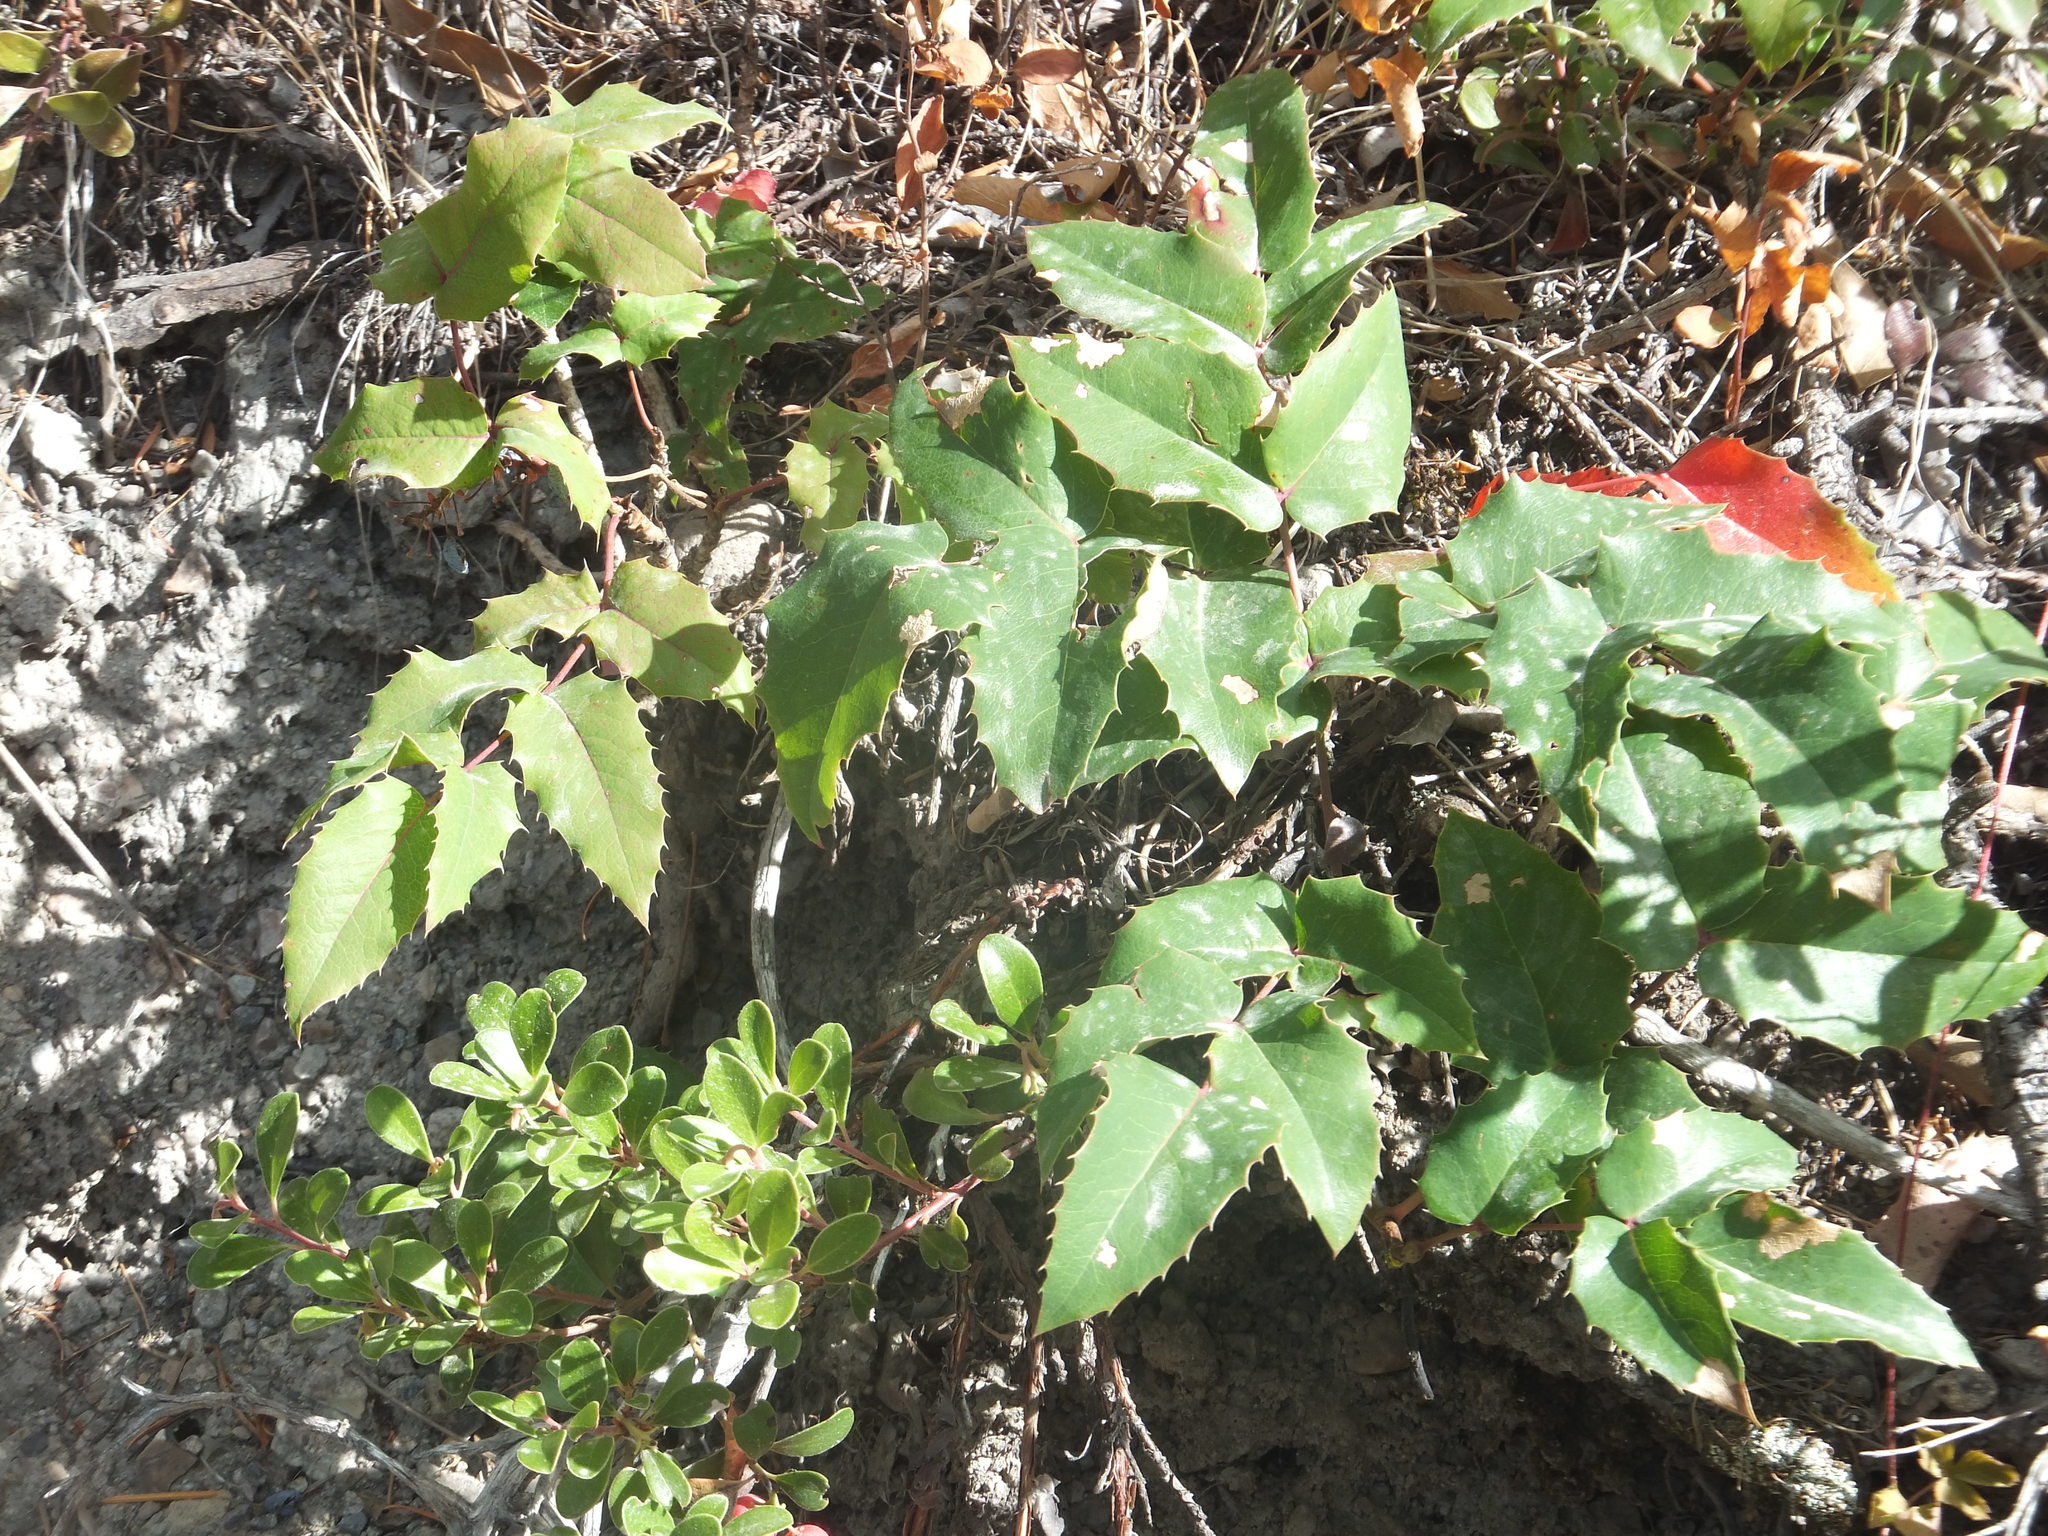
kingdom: Plantae
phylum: Tracheophyta
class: Magnoliopsida
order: Ranunculales
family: Berberidaceae
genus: Mahonia
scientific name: Mahonia repens
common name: Creeping oregon-grape
